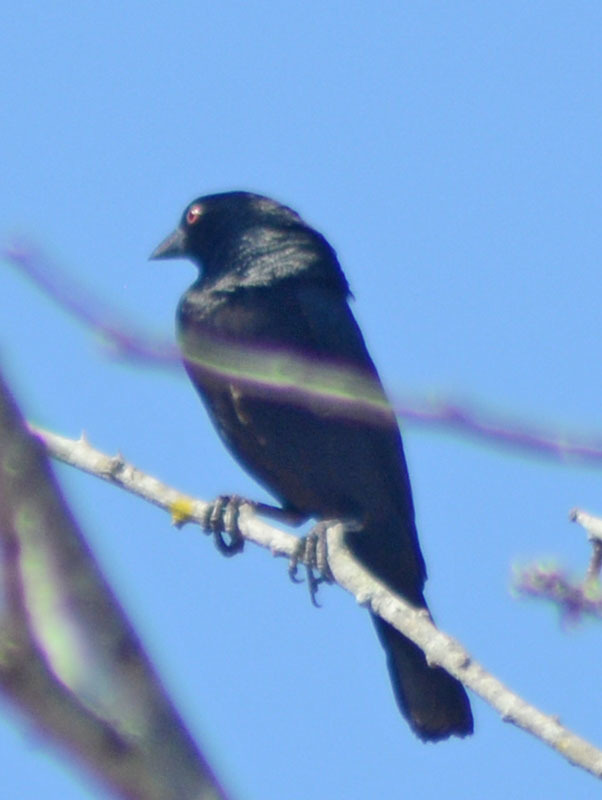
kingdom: Animalia
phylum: Chordata
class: Aves
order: Passeriformes
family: Icteridae
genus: Molothrus
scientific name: Molothrus aeneus
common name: Bronzed cowbird
